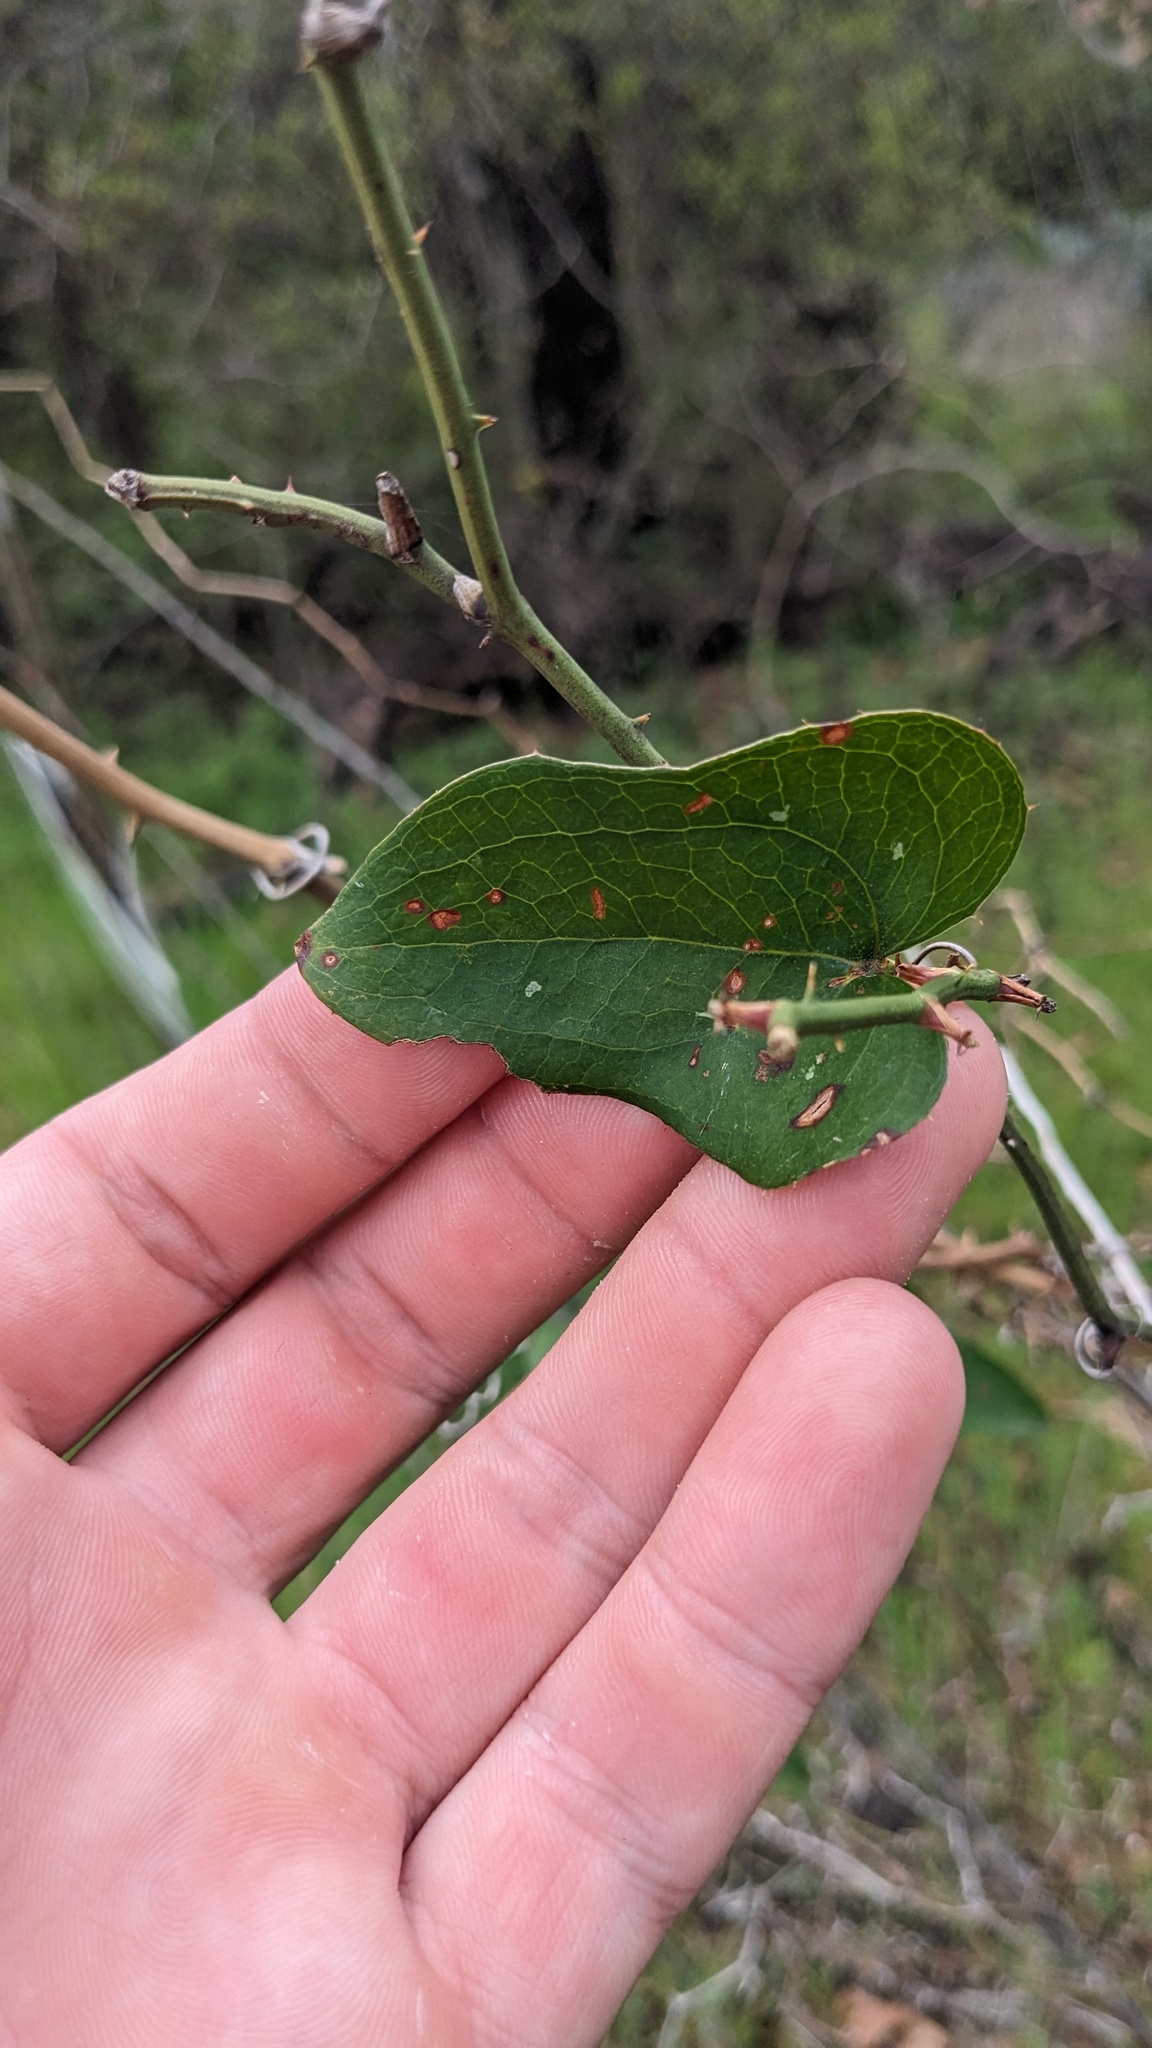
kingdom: Plantae
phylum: Tracheophyta
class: Liliopsida
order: Liliales
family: Smilacaceae
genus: Smilax
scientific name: Smilax bona-nox
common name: Catbrier
